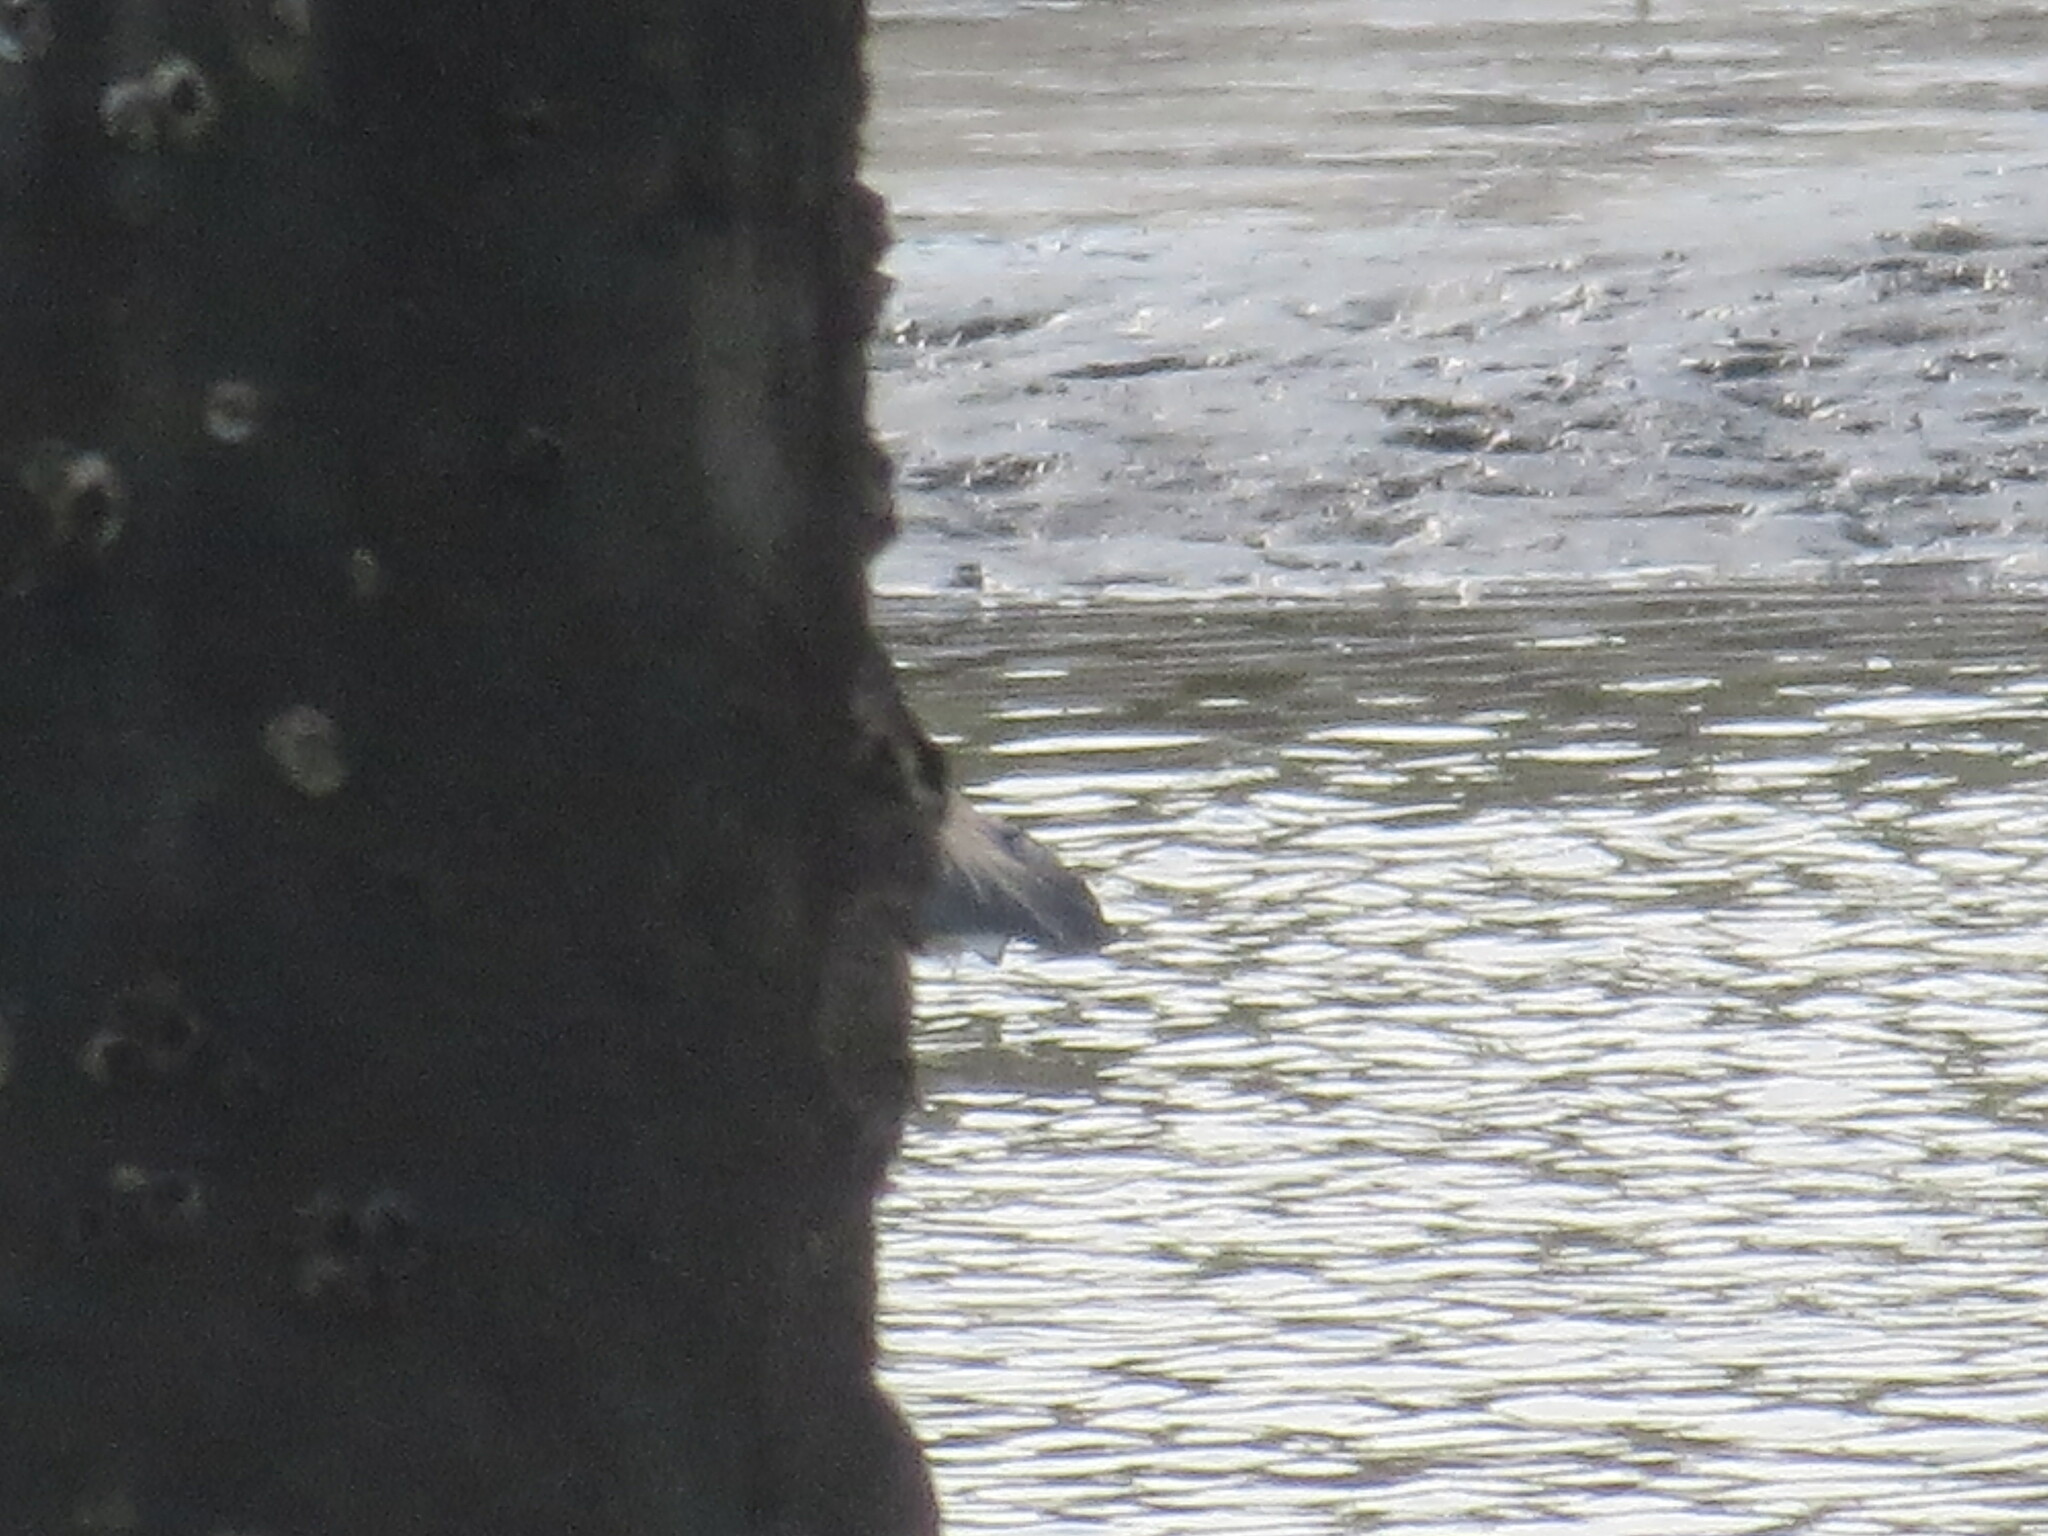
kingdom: Animalia
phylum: Chordata
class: Aves
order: Pelecaniformes
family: Ardeidae
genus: Egretta
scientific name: Egretta tricolor
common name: Tricolored heron
